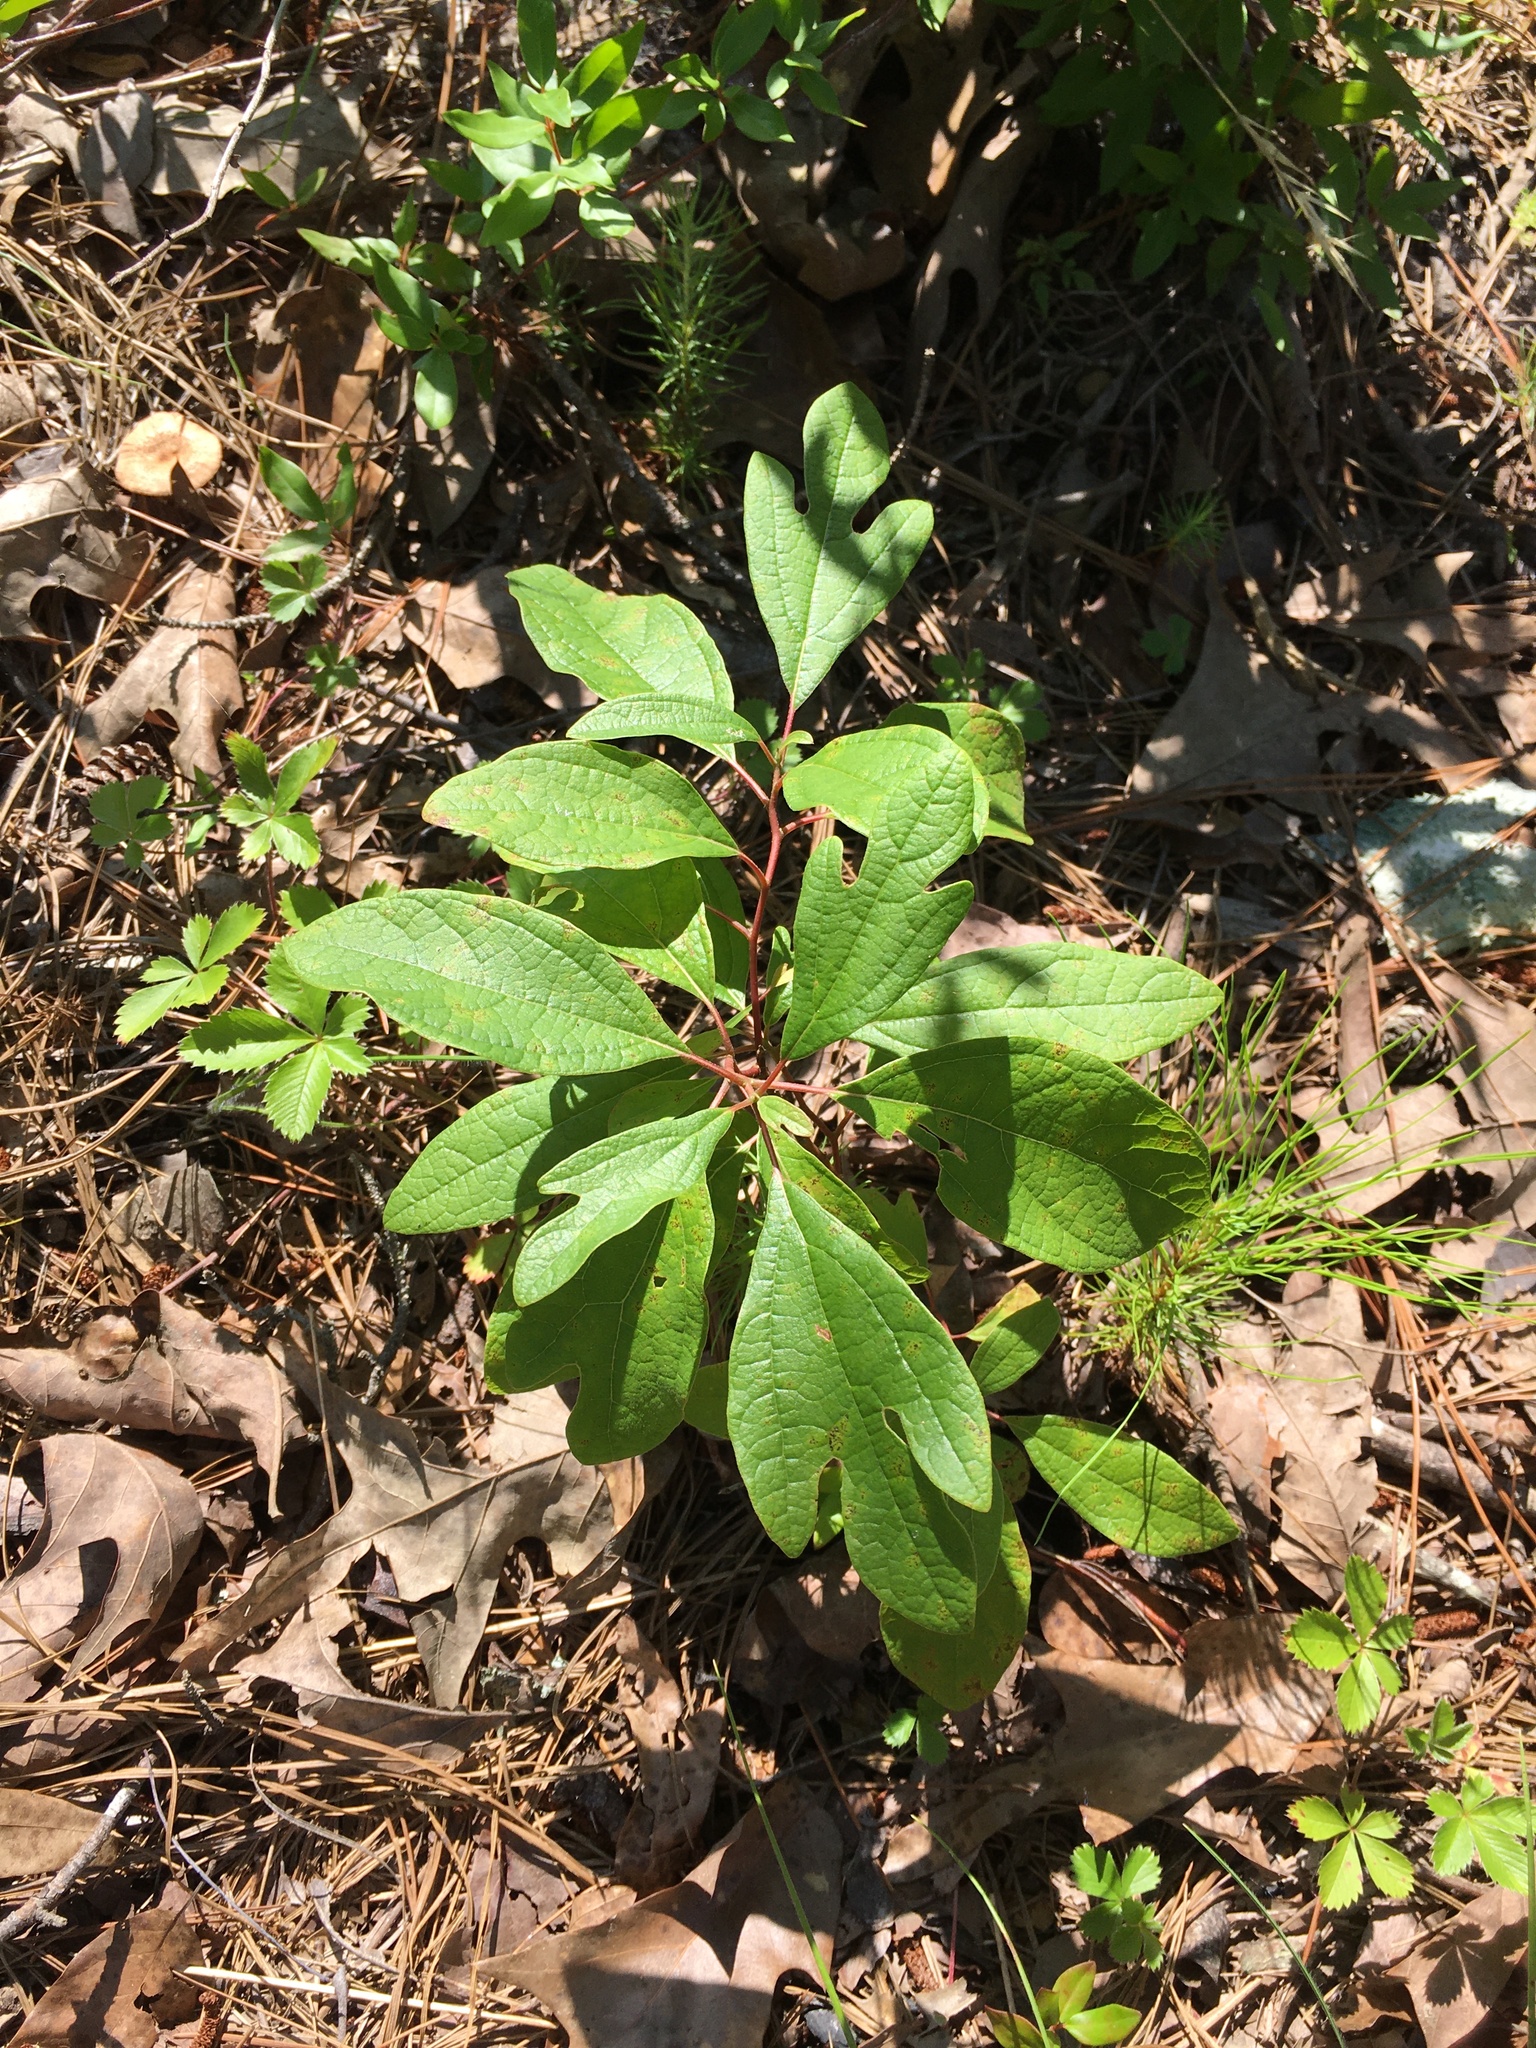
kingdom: Plantae
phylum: Tracheophyta
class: Magnoliopsida
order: Laurales
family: Lauraceae
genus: Sassafras
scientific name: Sassafras albidum
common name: Sassafras
